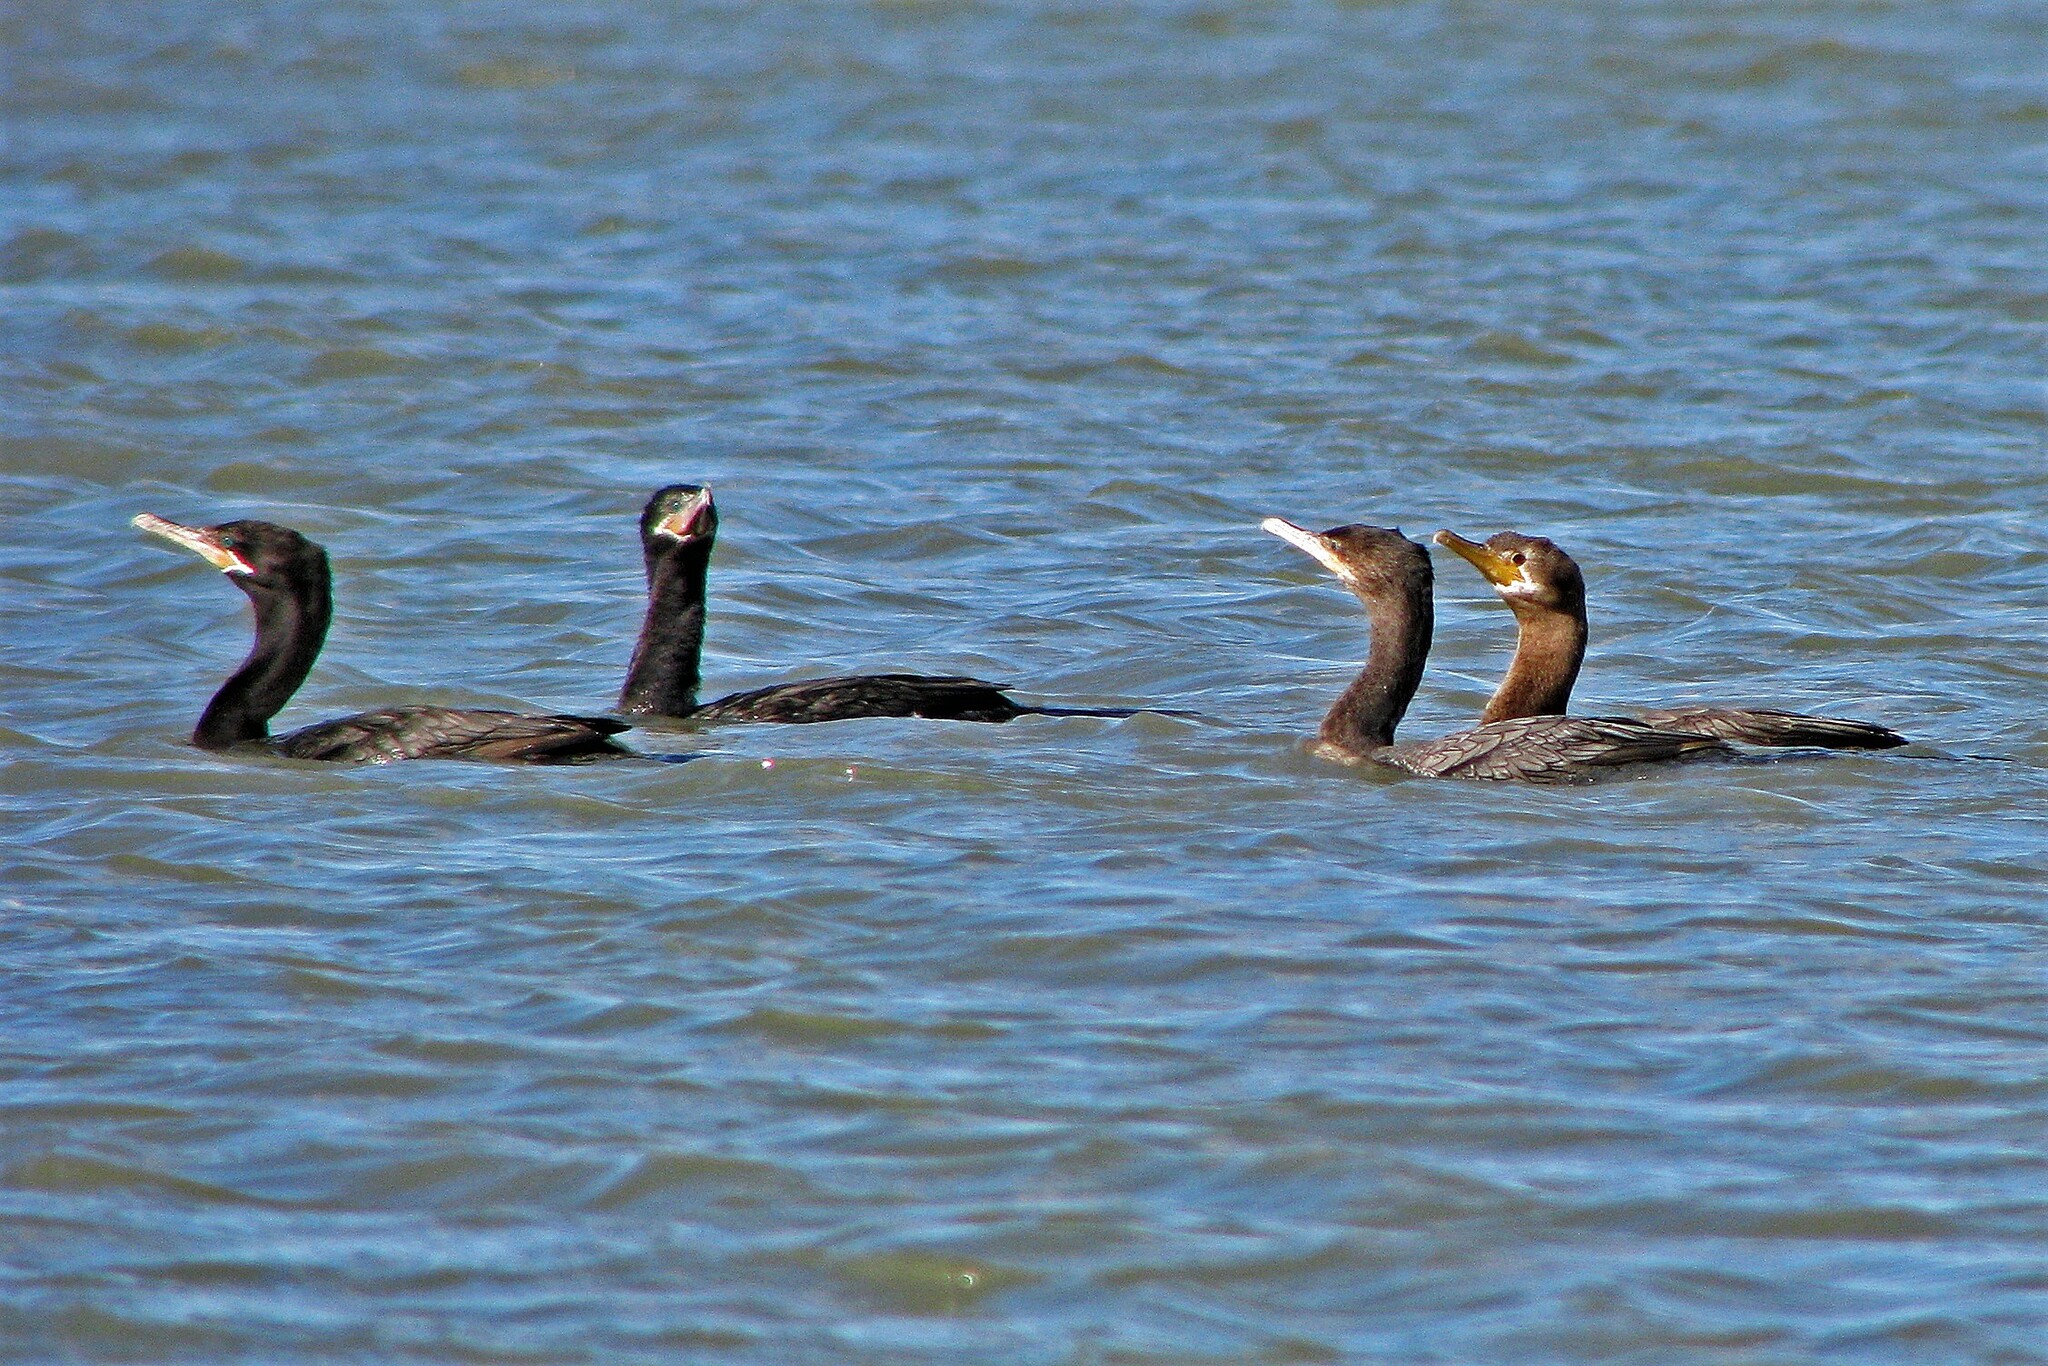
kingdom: Animalia
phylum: Chordata
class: Aves
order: Suliformes
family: Phalacrocoracidae
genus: Phalacrocorax
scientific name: Phalacrocorax brasilianus
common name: Neotropic cormorant
